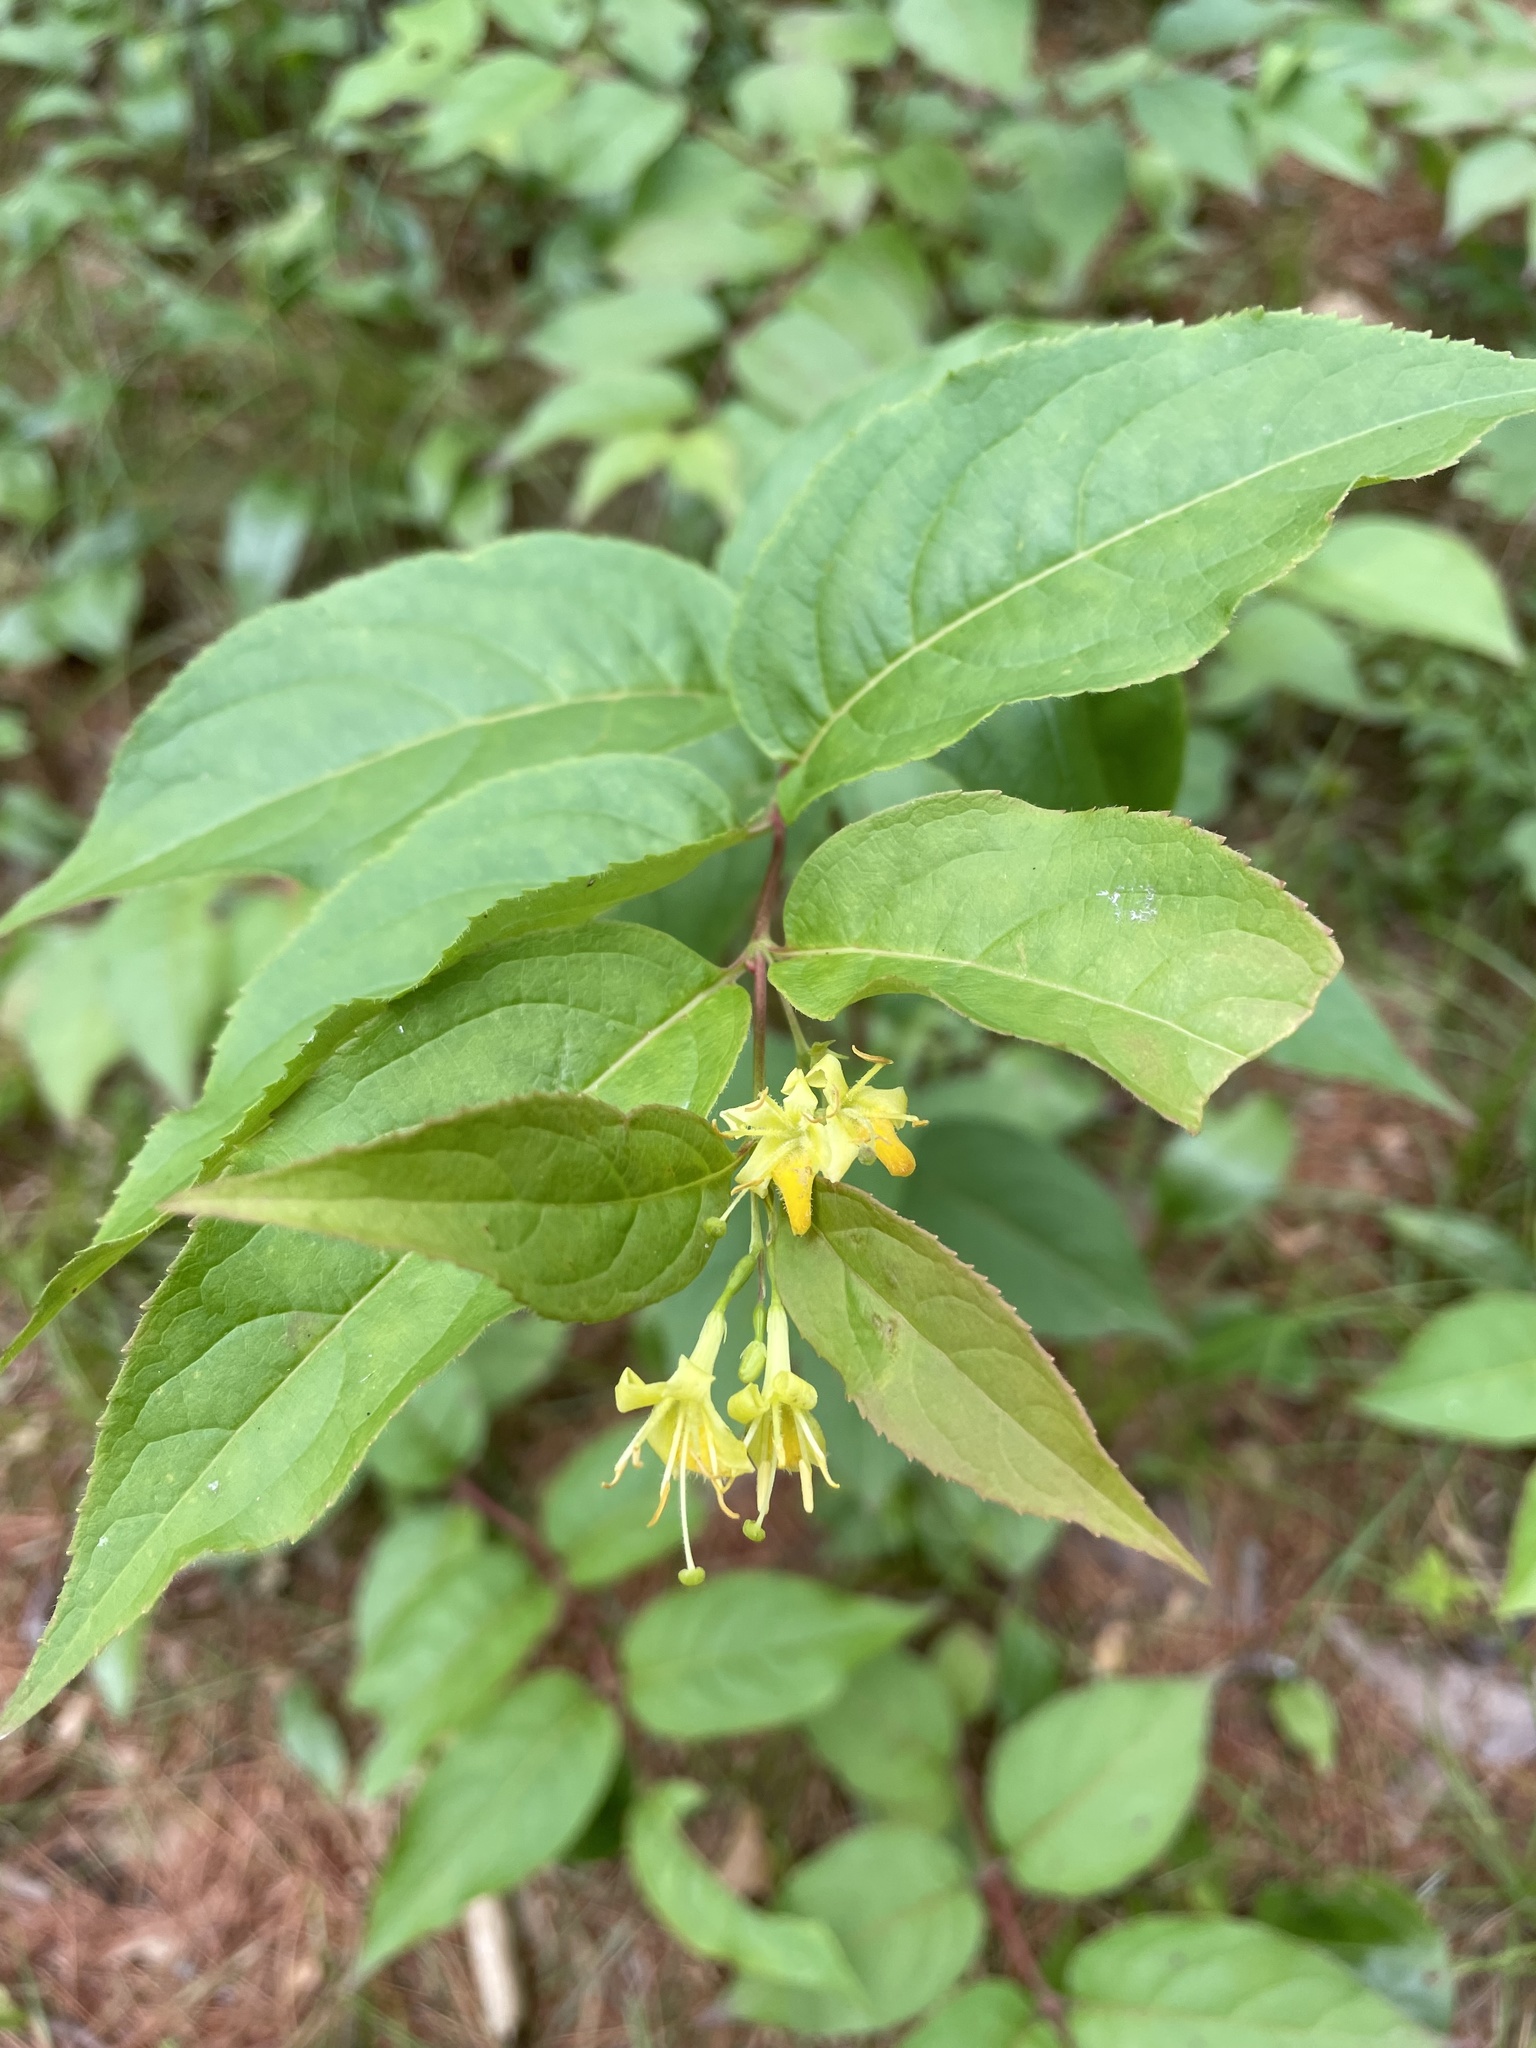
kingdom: Plantae
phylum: Tracheophyta
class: Magnoliopsida
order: Dipsacales
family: Caprifoliaceae
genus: Diervilla
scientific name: Diervilla lonicera
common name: Bush-honeysuckle
